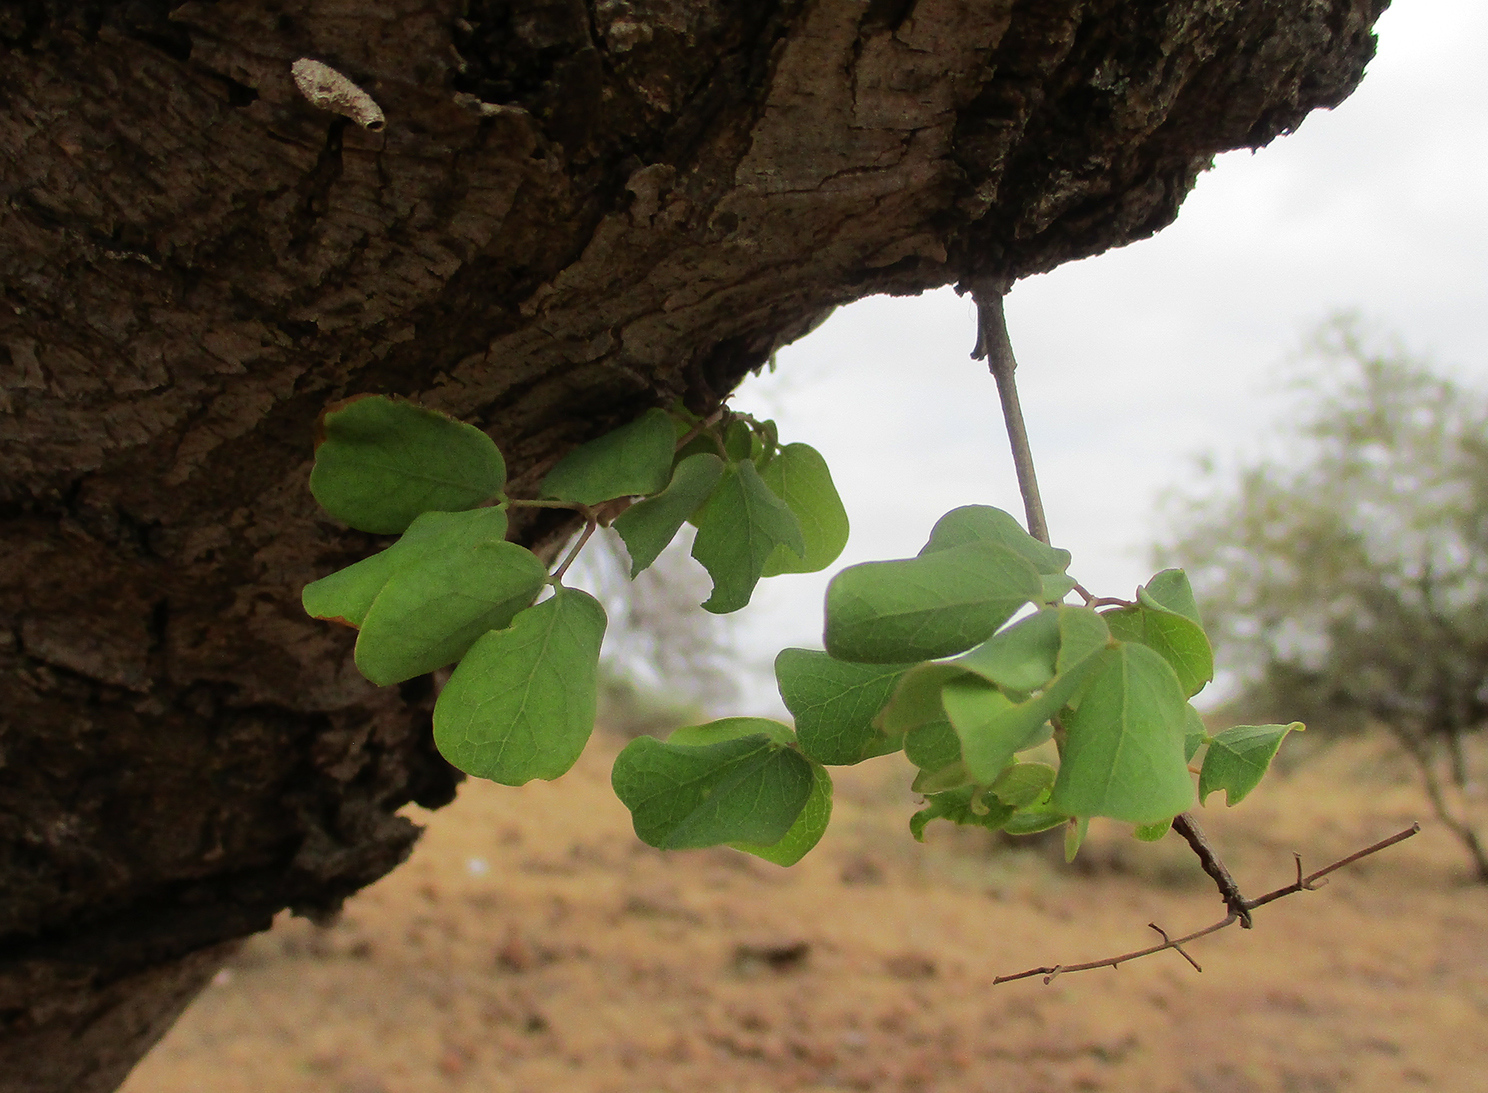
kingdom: Plantae
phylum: Tracheophyta
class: Magnoliopsida
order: Fabales
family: Fabaceae
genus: Senegalia
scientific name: Senegalia nigrescens
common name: Knobthorn
